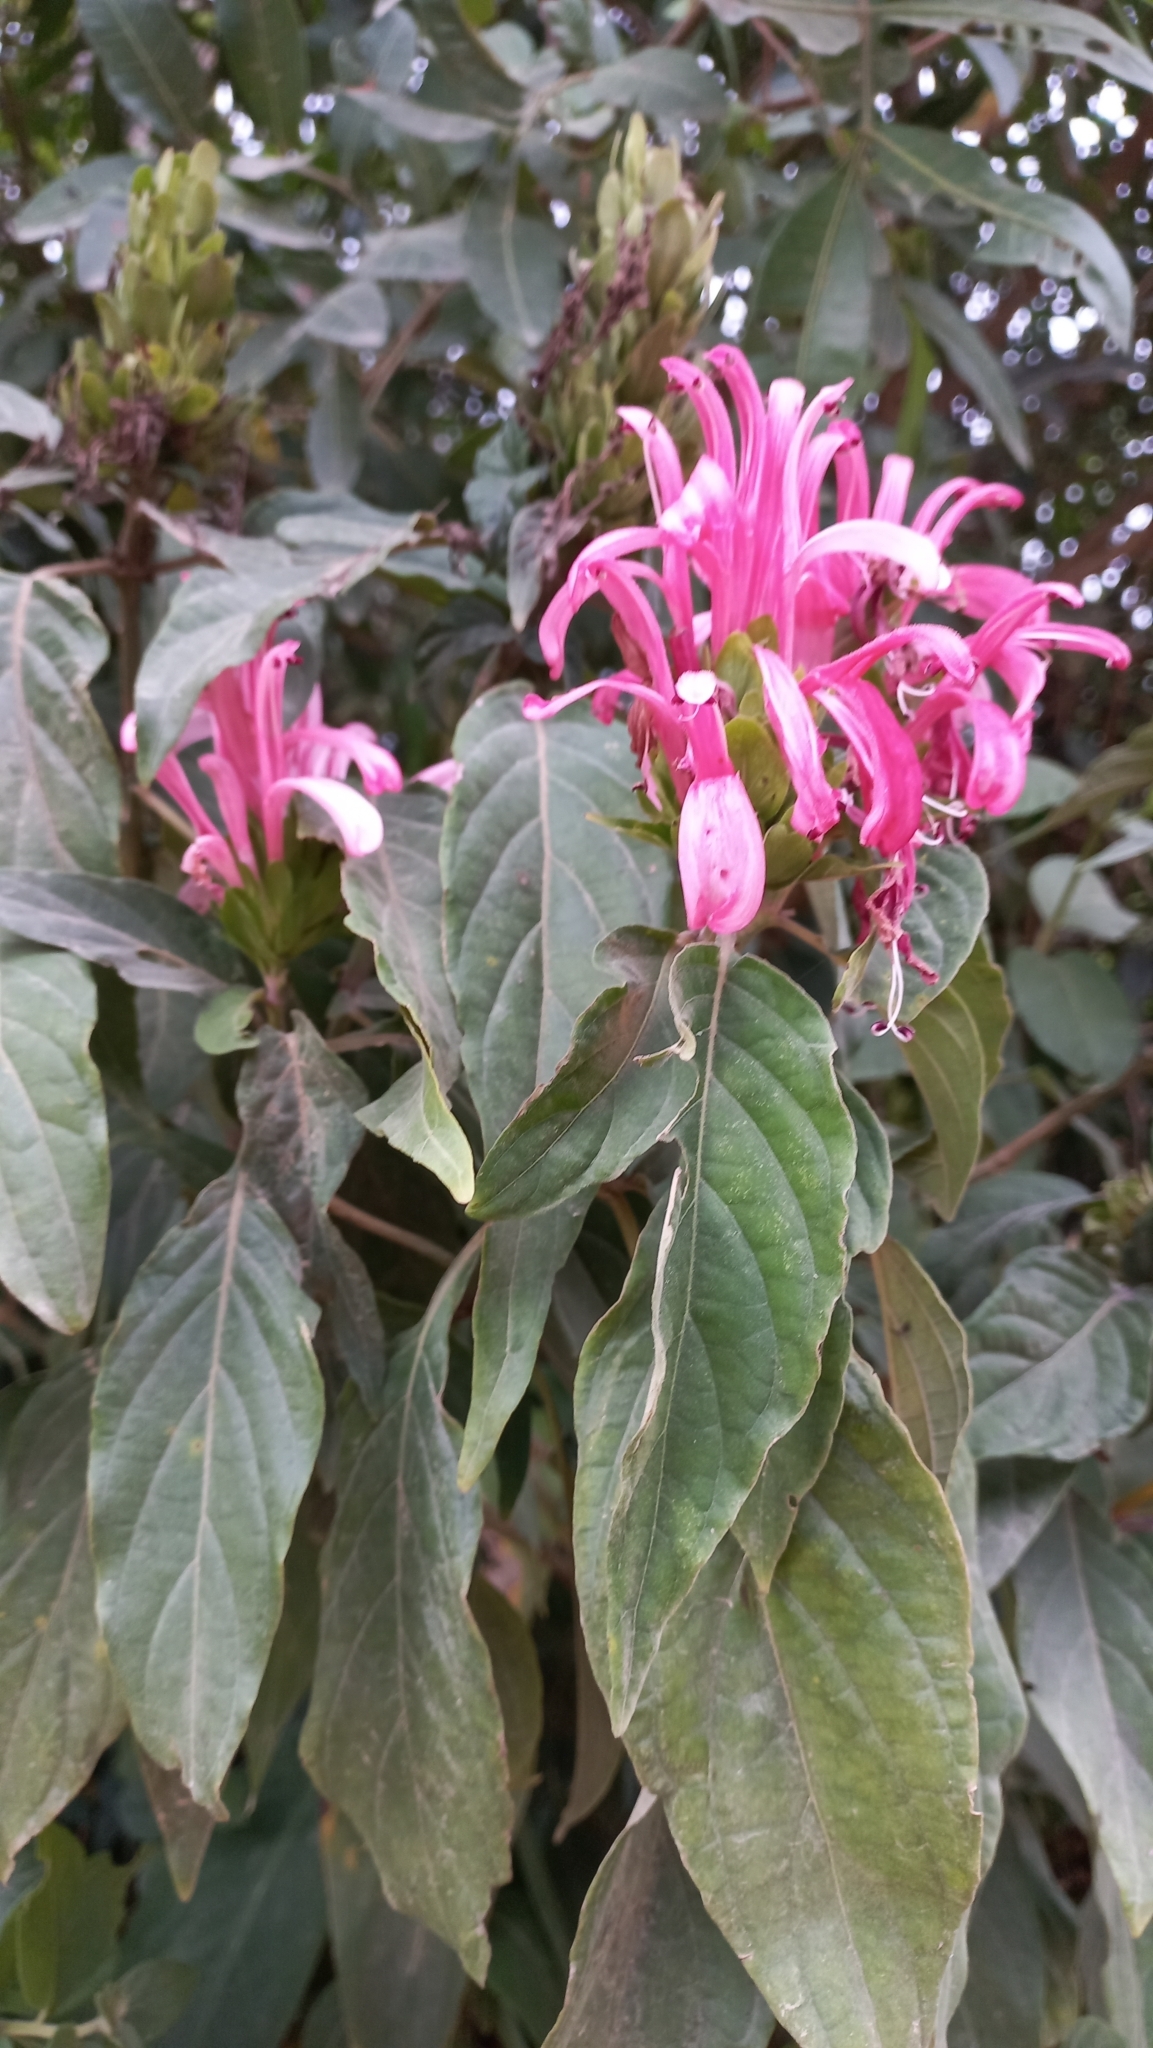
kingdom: Plantae
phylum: Tracheophyta
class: Magnoliopsida
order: Lamiales
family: Acanthaceae
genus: Justicia
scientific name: Justicia carnea
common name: Brazilian-plume
